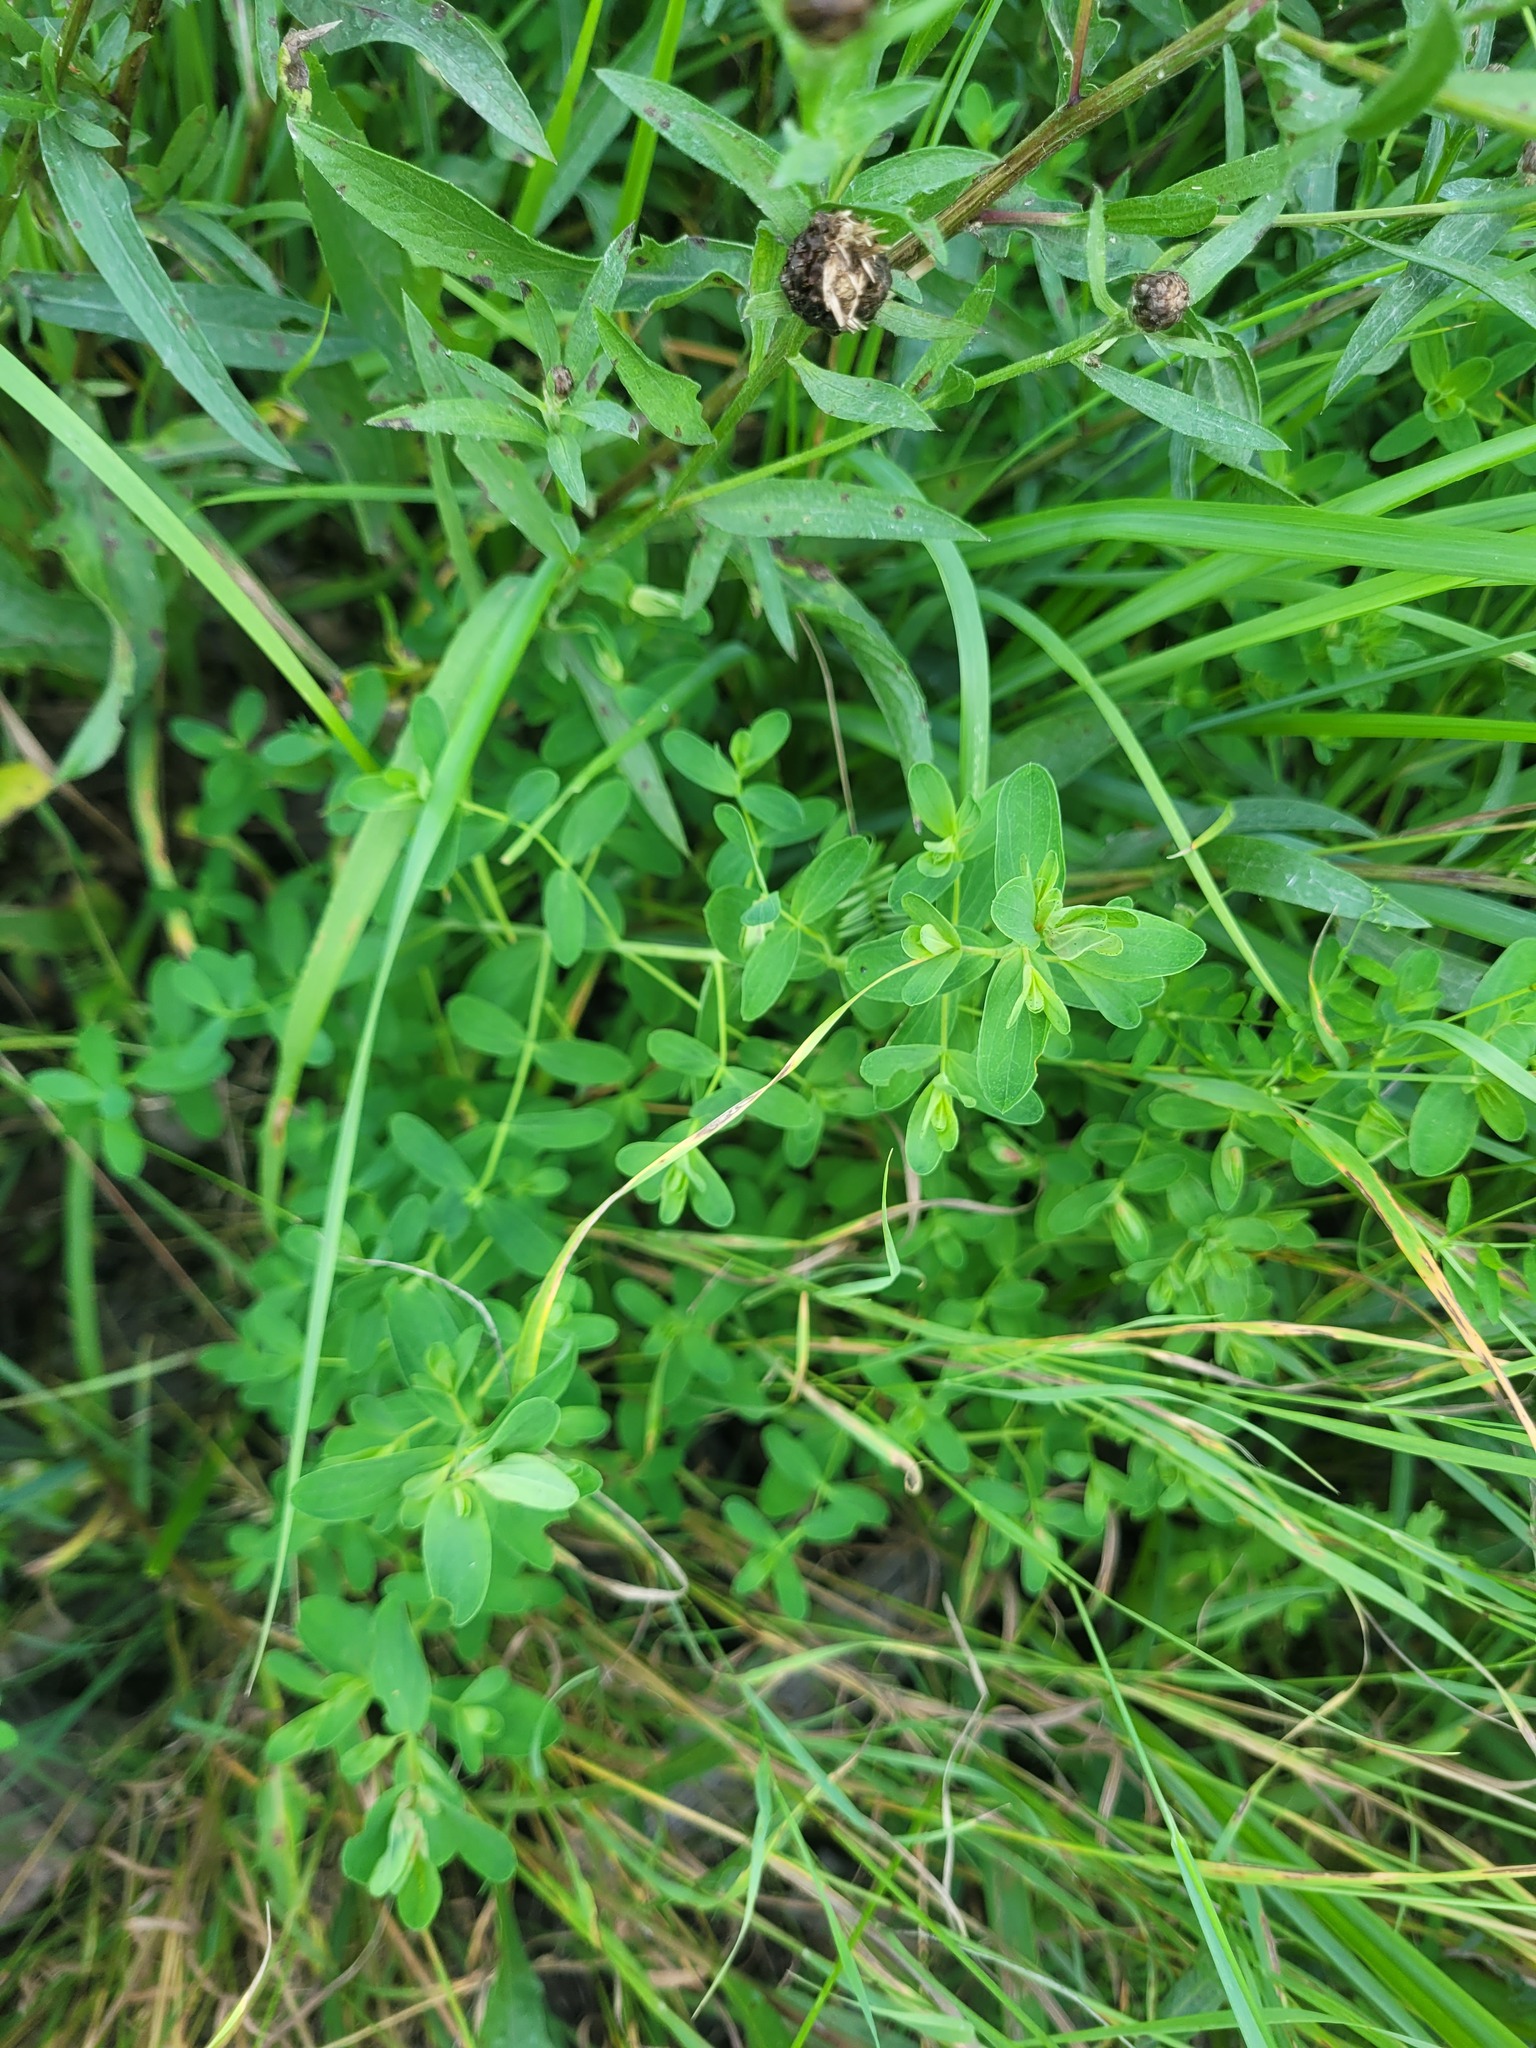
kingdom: Plantae
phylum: Tracheophyta
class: Magnoliopsida
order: Malpighiales
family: Hypericaceae
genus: Hypericum
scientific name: Hypericum perforatum
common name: Common st. johnswort
